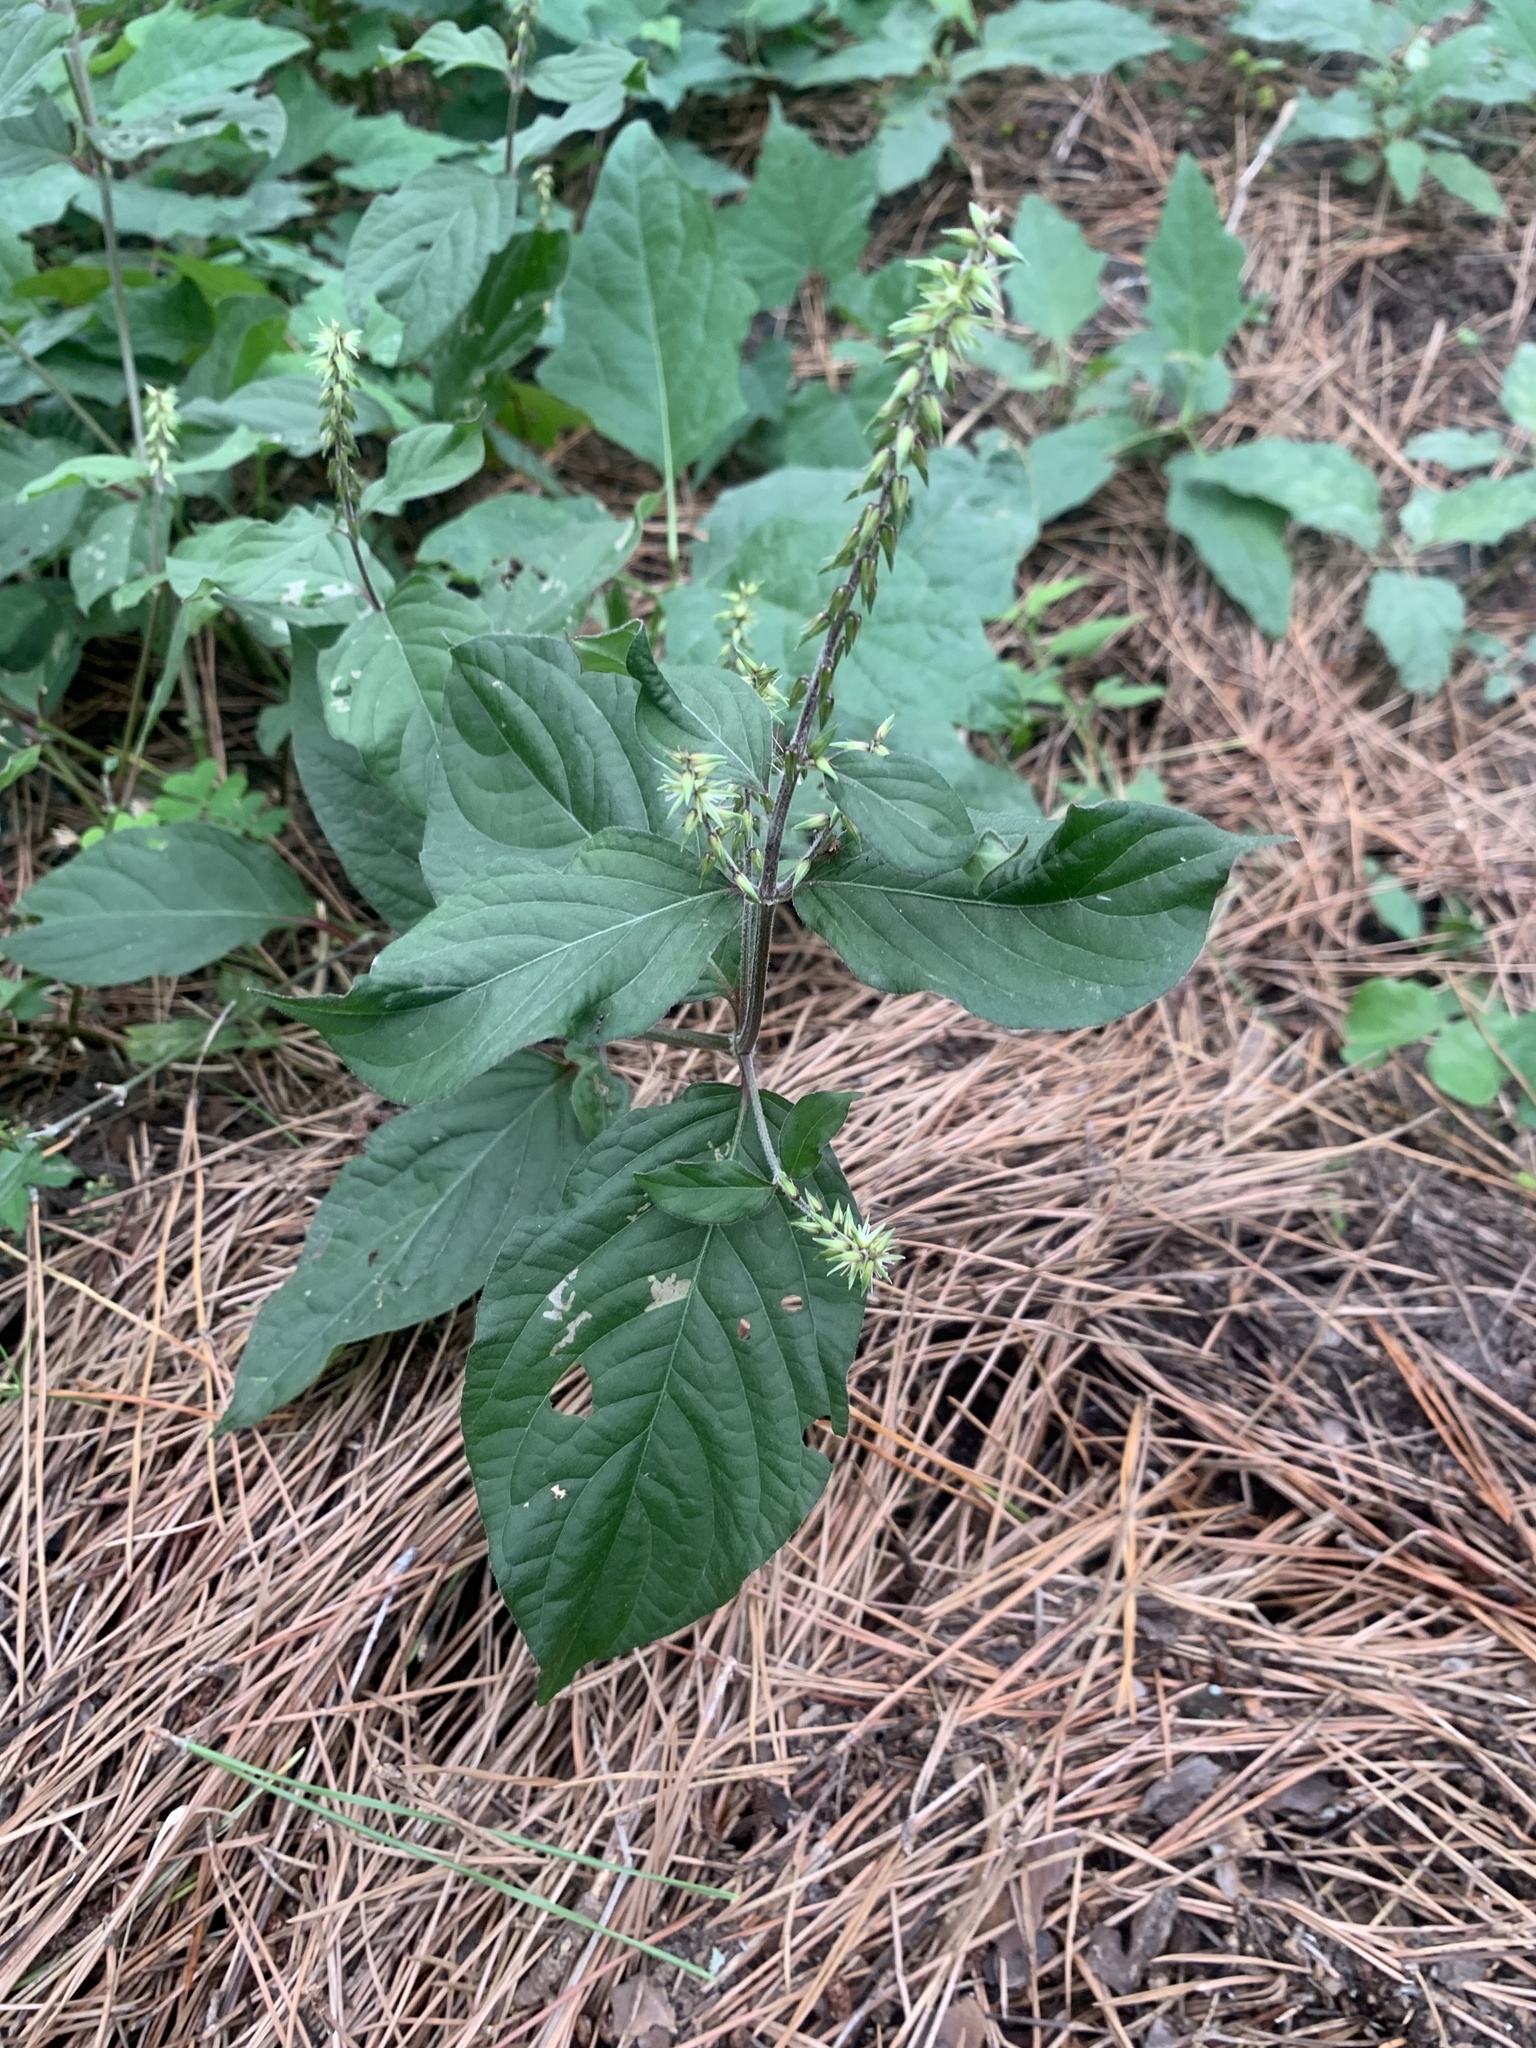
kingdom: Plantae
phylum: Tracheophyta
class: Magnoliopsida
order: Caryophyllales
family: Amaranthaceae
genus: Achyranthes
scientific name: Achyranthes bidentata
